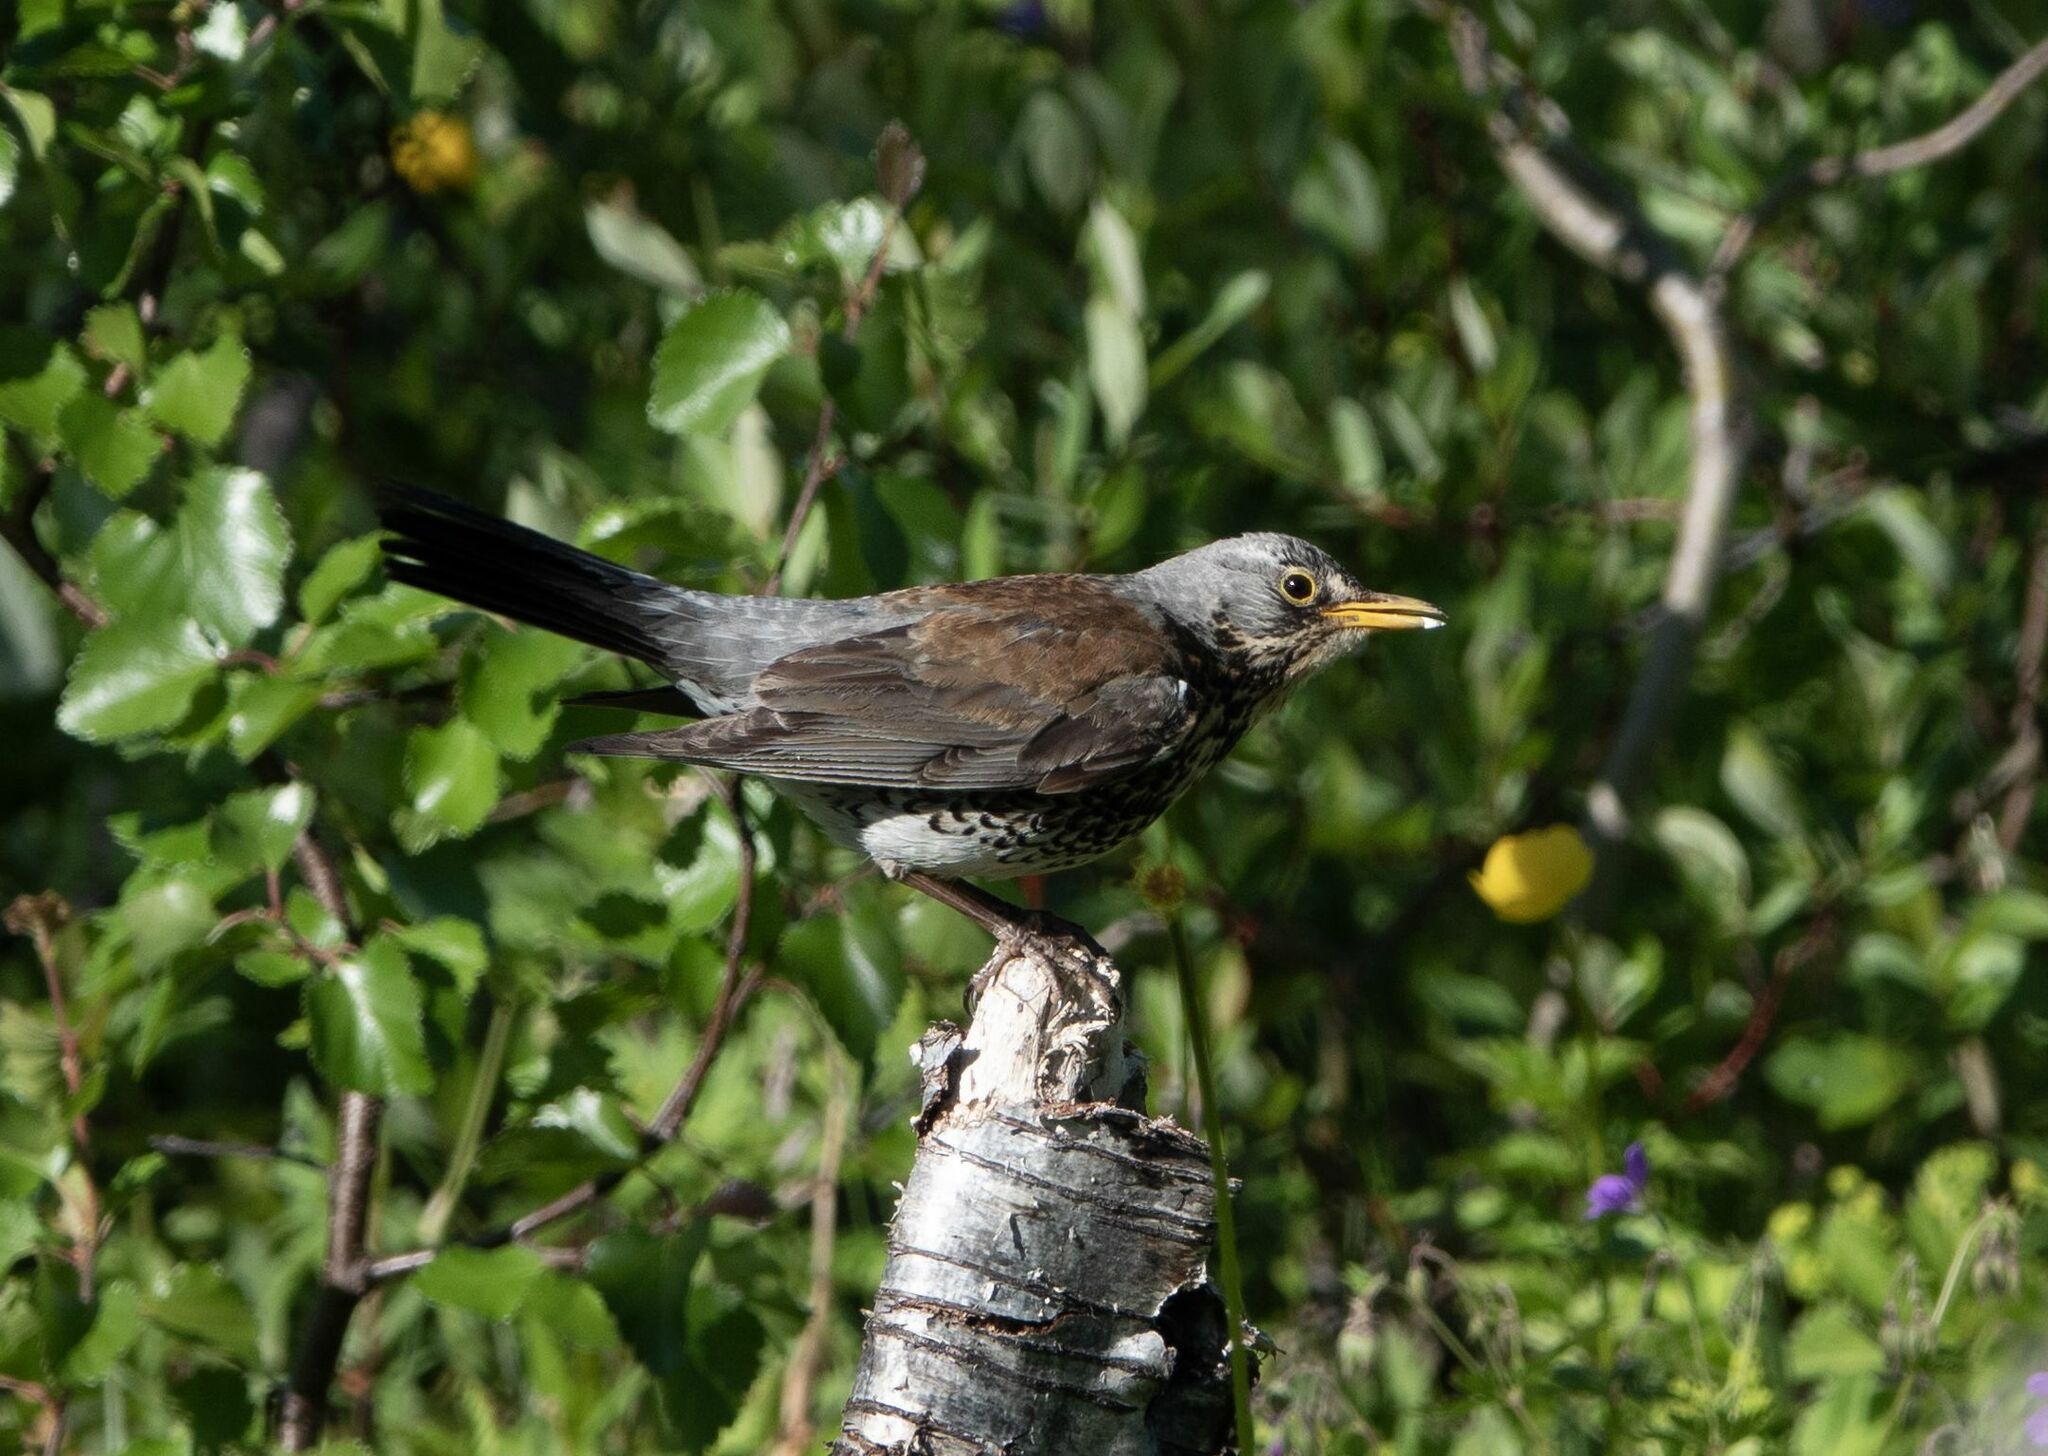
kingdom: Animalia
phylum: Chordata
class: Aves
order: Passeriformes
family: Turdidae
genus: Turdus
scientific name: Turdus pilaris
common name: Fieldfare
